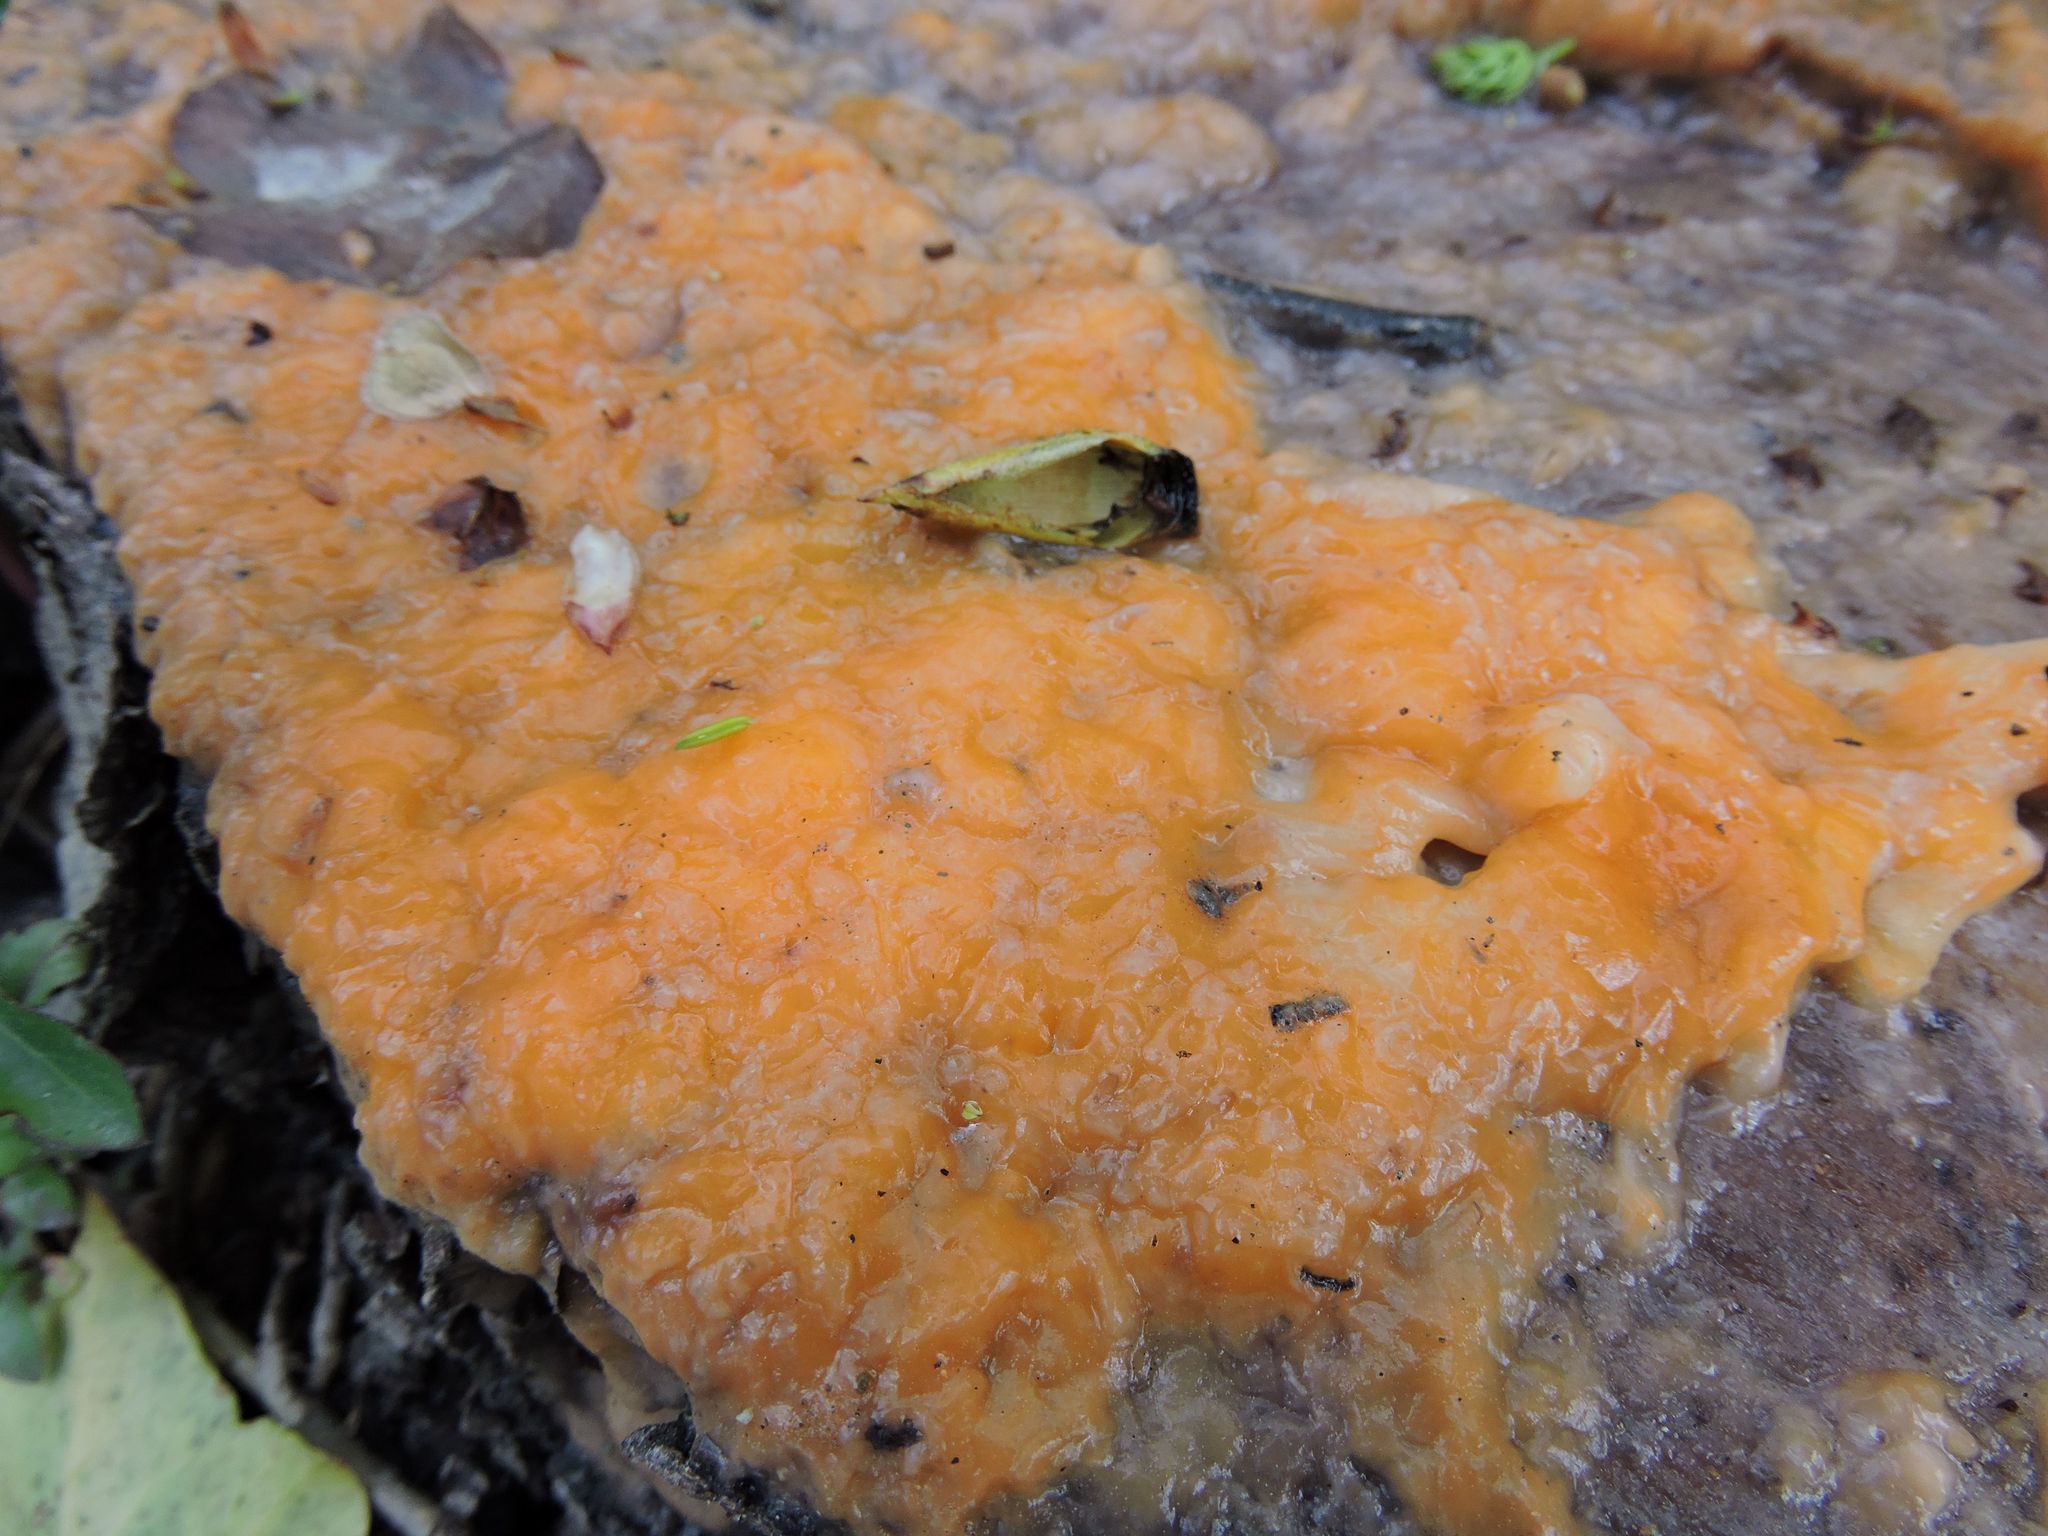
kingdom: Fungi
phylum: Ascomycota
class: Sordariomycetes
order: Hypocreales
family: Nectriaceae
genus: Fusicolla
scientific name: Fusicolla merismoides
